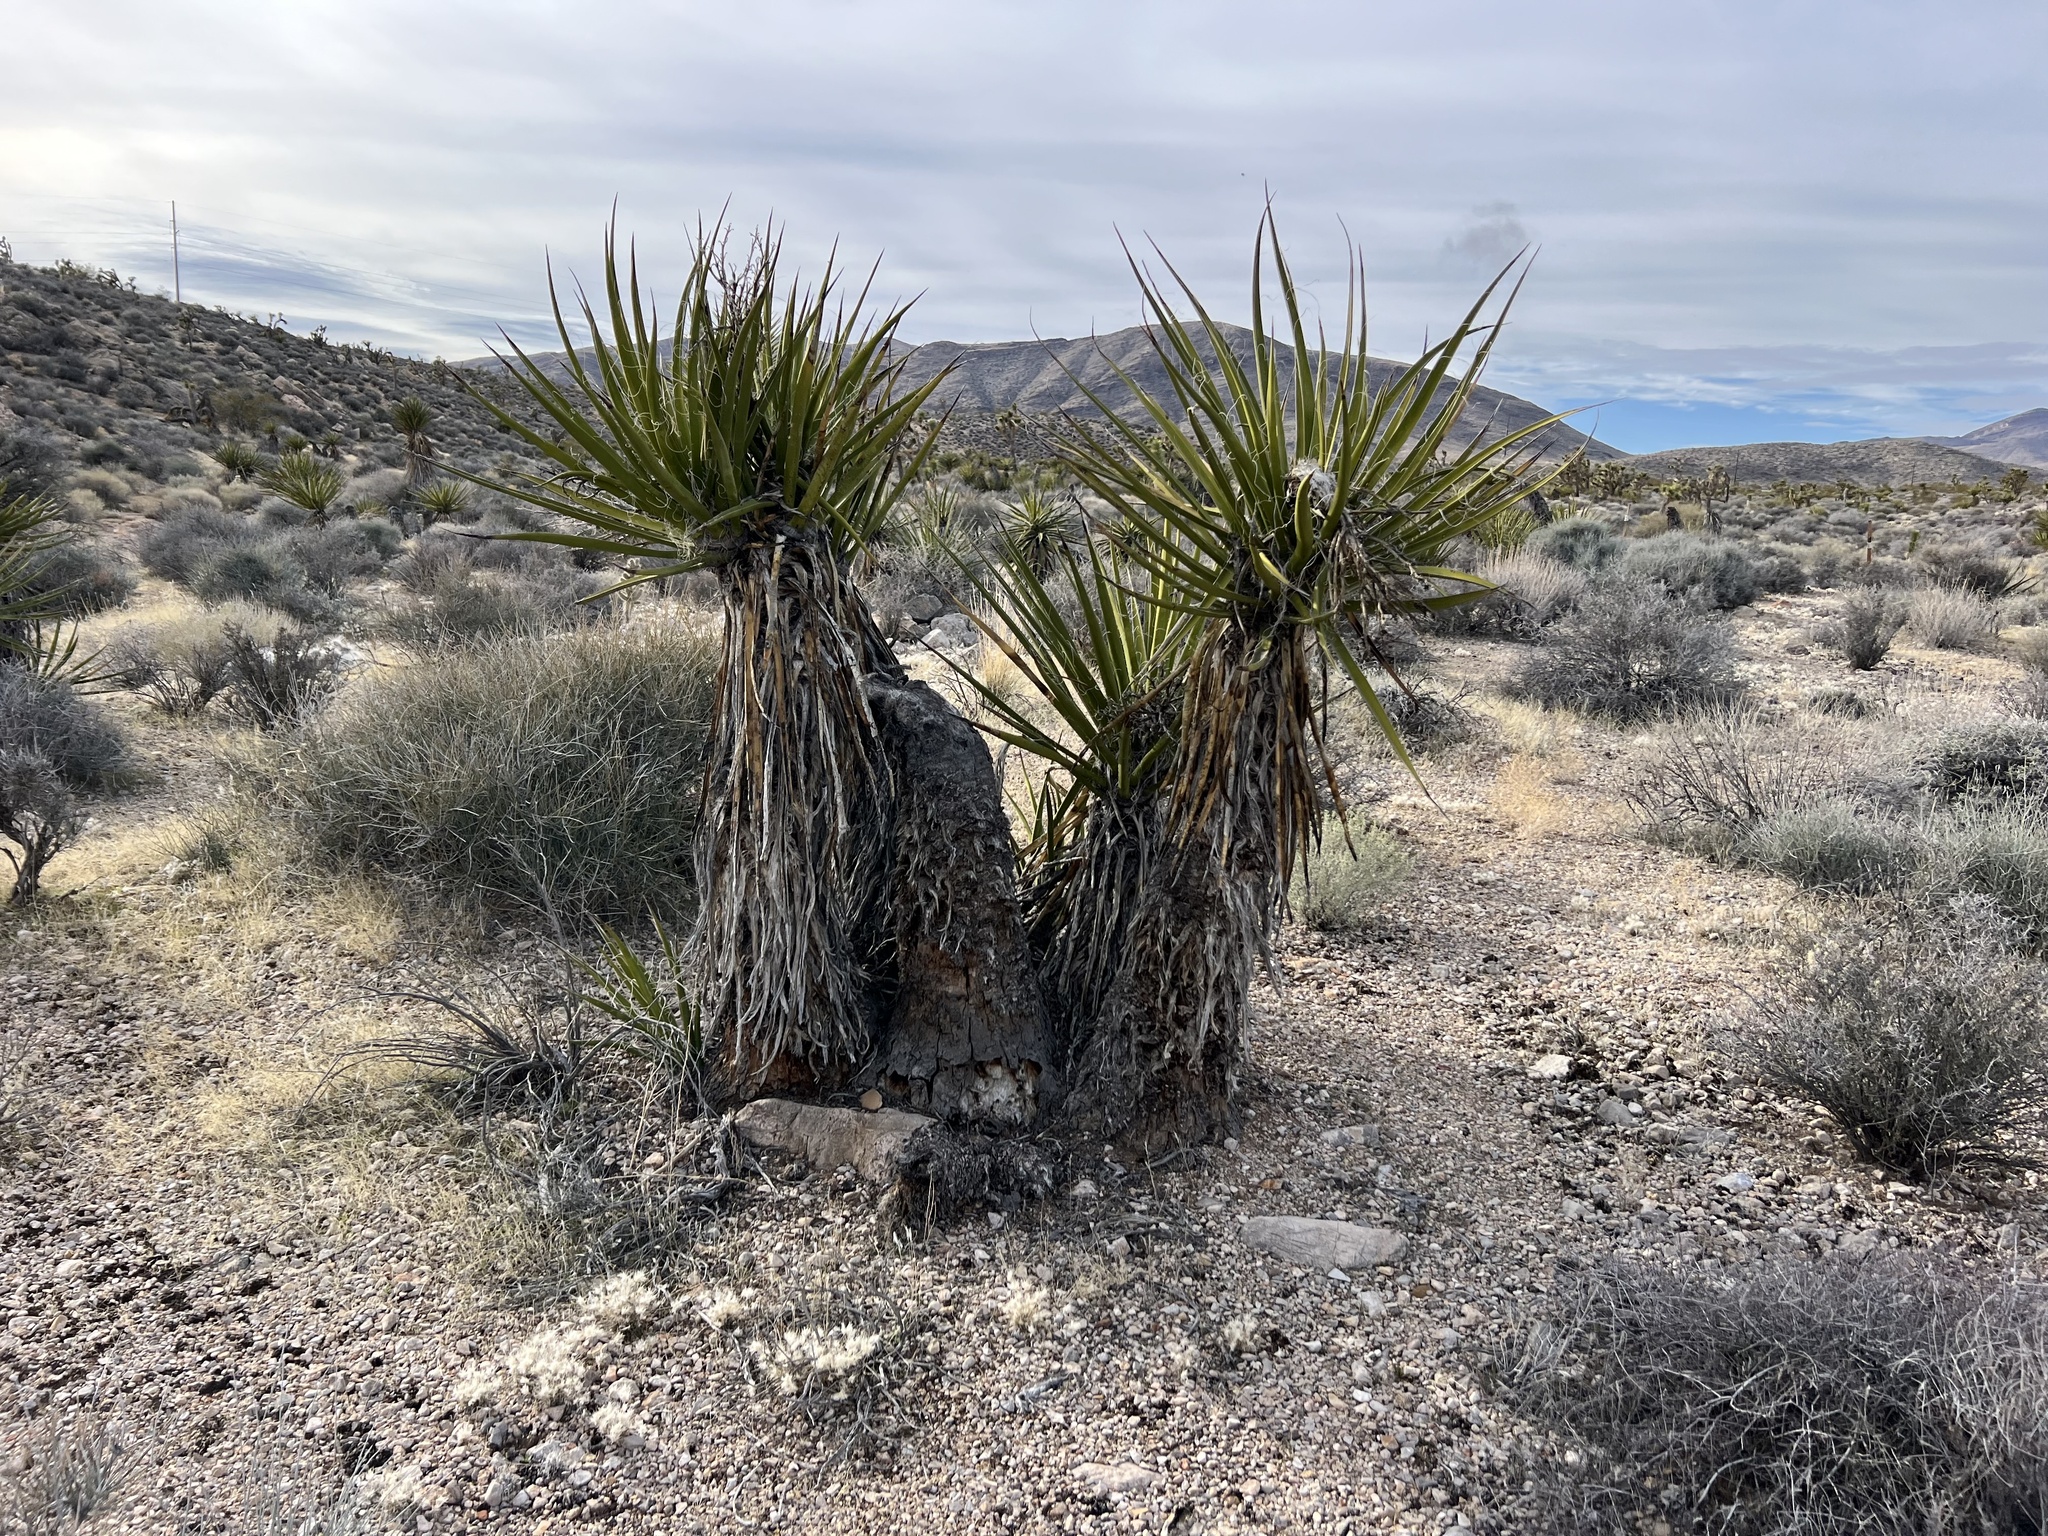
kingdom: Plantae
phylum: Tracheophyta
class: Liliopsida
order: Asparagales
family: Asparagaceae
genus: Yucca
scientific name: Yucca schidigera
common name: Mojave yucca
